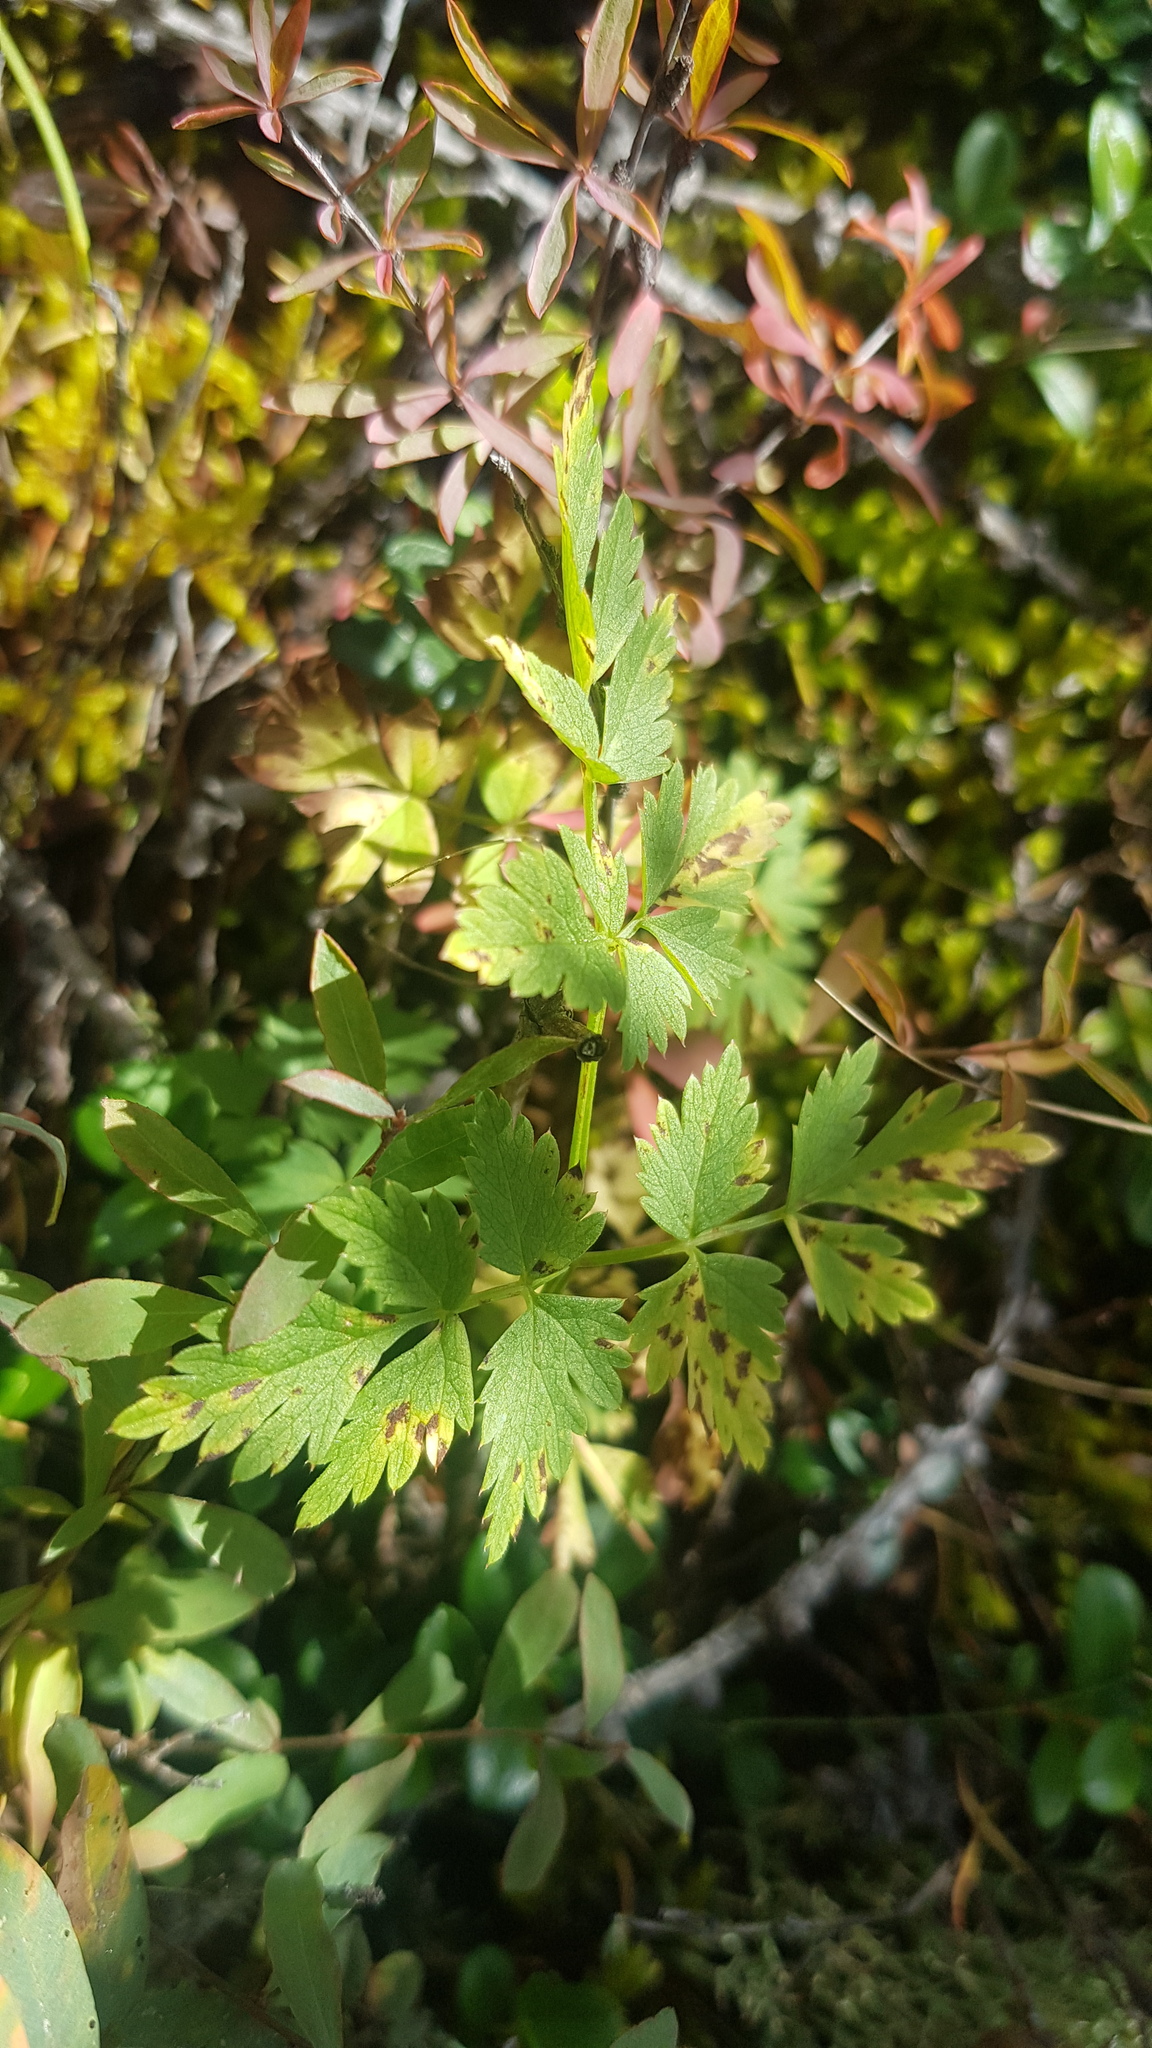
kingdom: Plantae
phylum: Tracheophyta
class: Magnoliopsida
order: Apiales
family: Apiaceae
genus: Aegopodium
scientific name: Aegopodium alpestre
